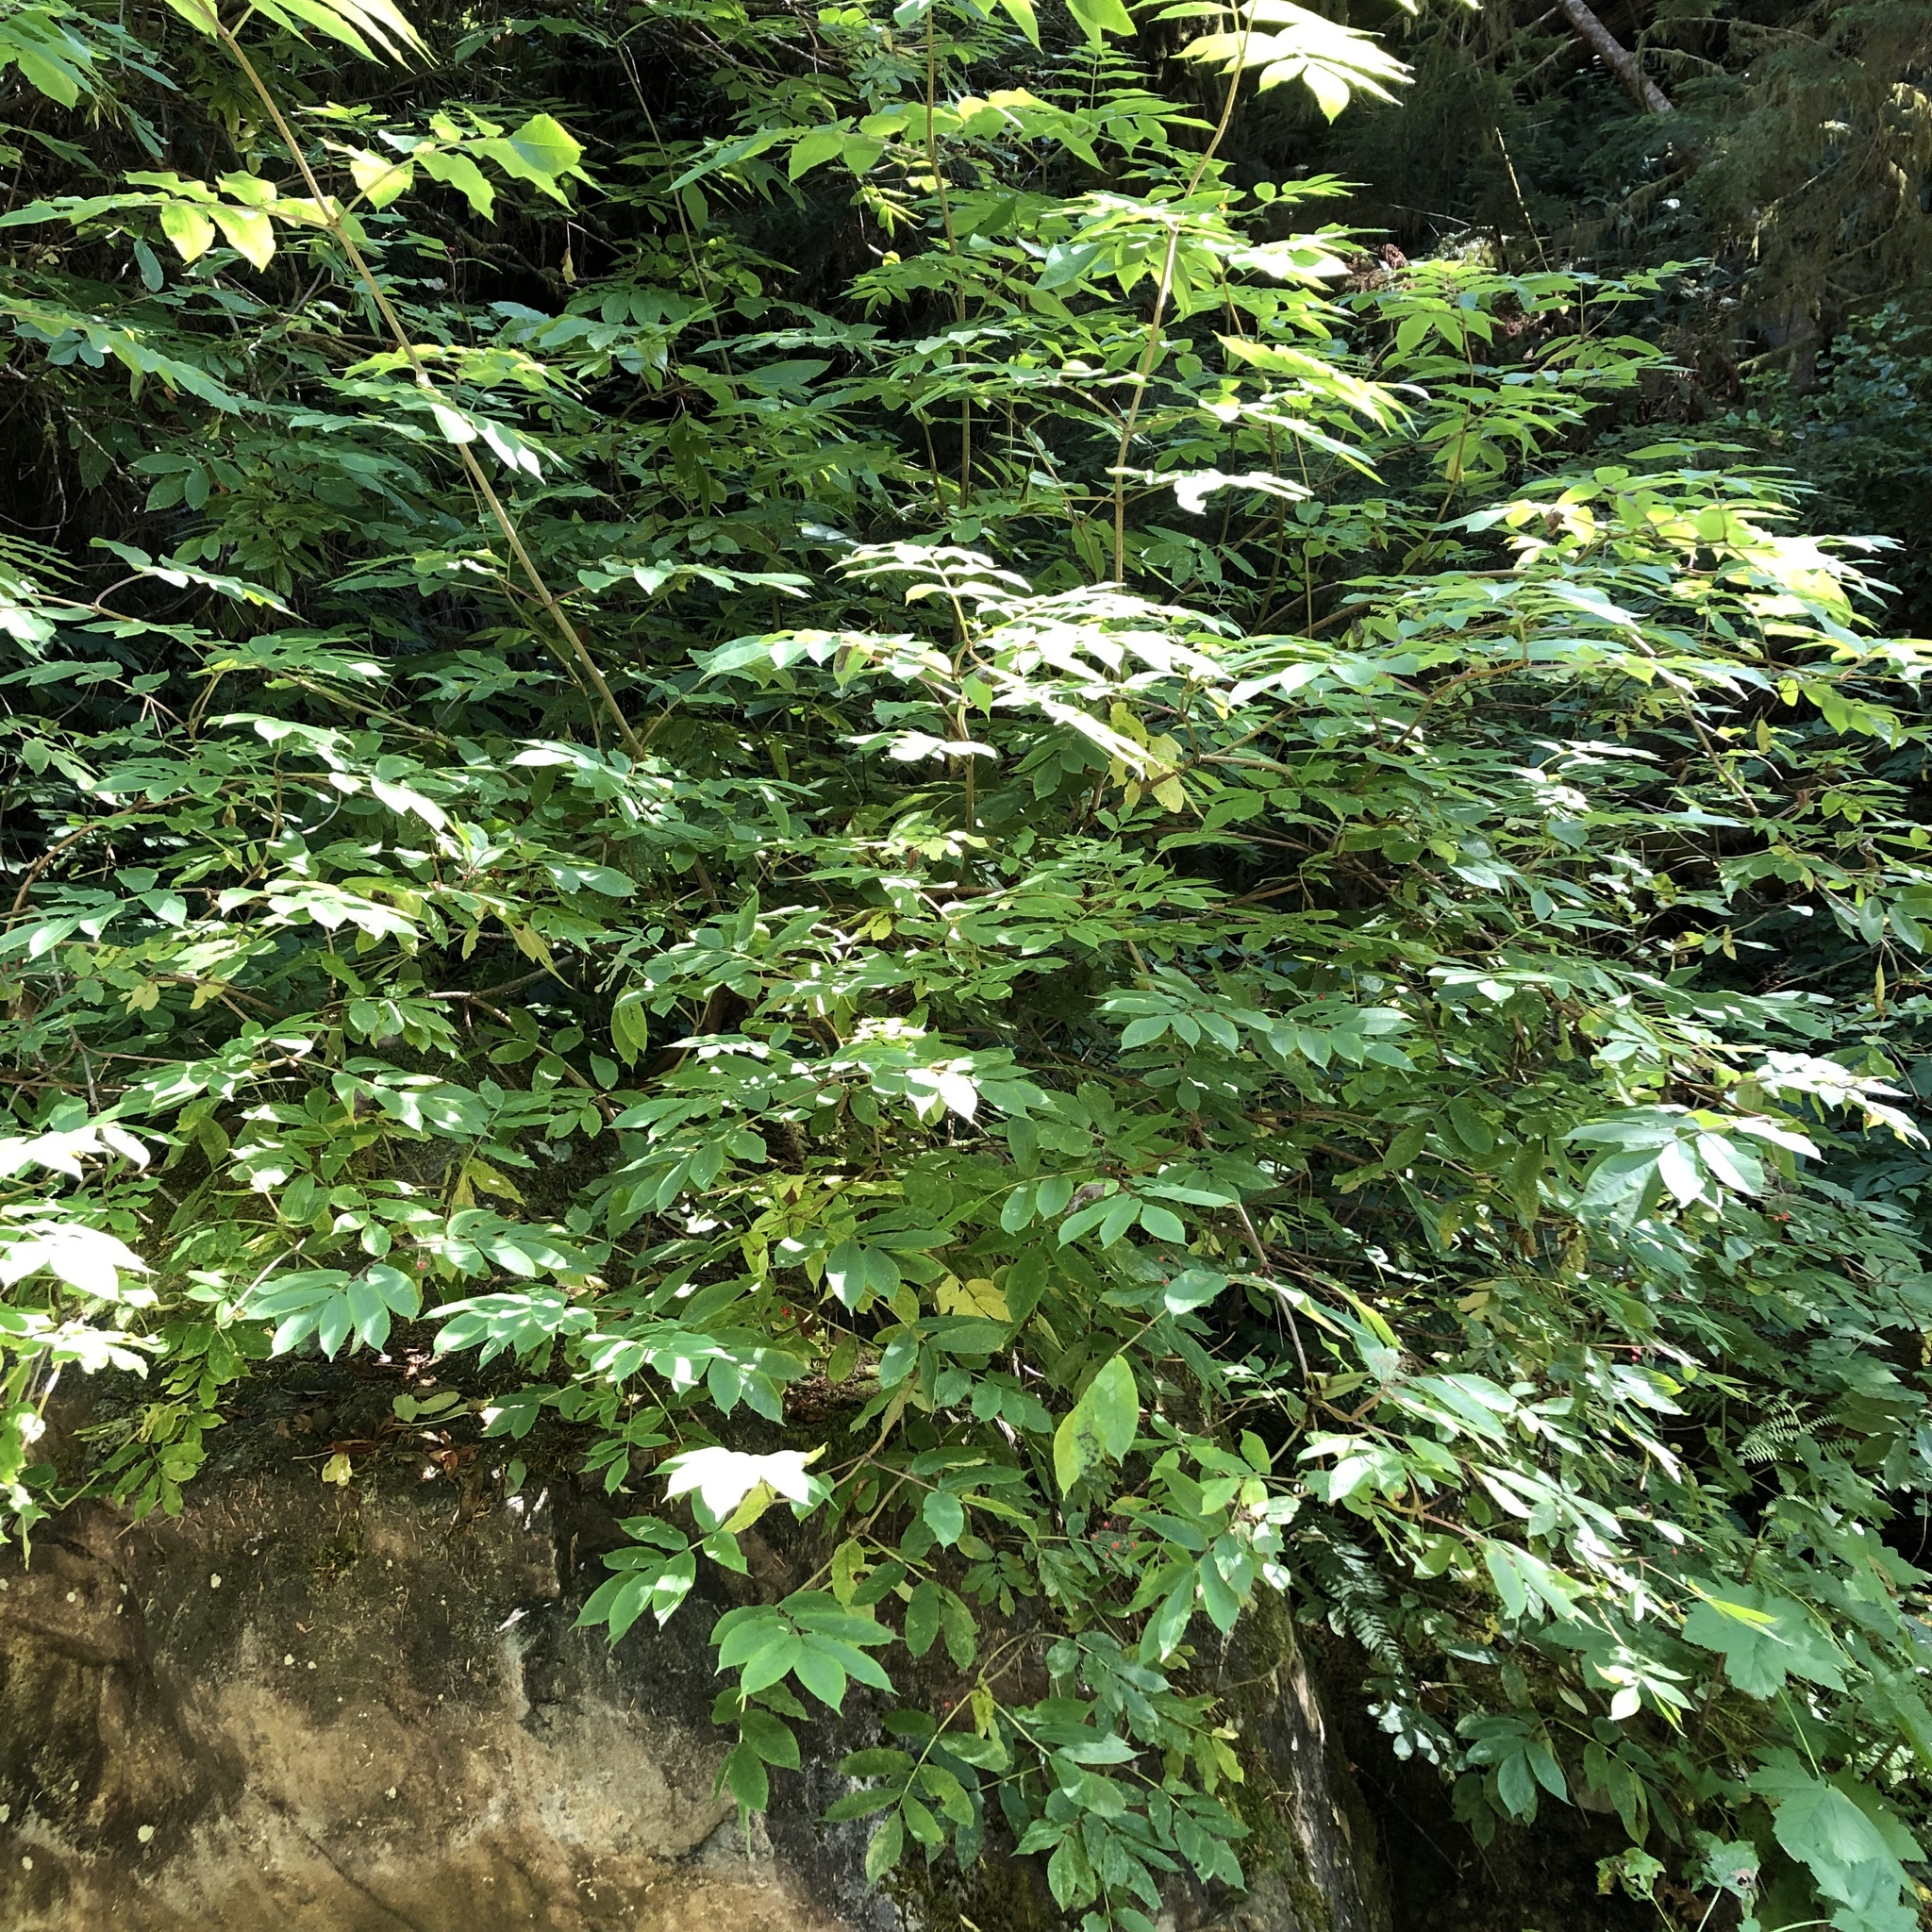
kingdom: Plantae
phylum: Tracheophyta
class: Magnoliopsida
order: Dipsacales
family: Viburnaceae
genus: Sambucus
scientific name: Sambucus racemosa
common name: Red-berried elder
